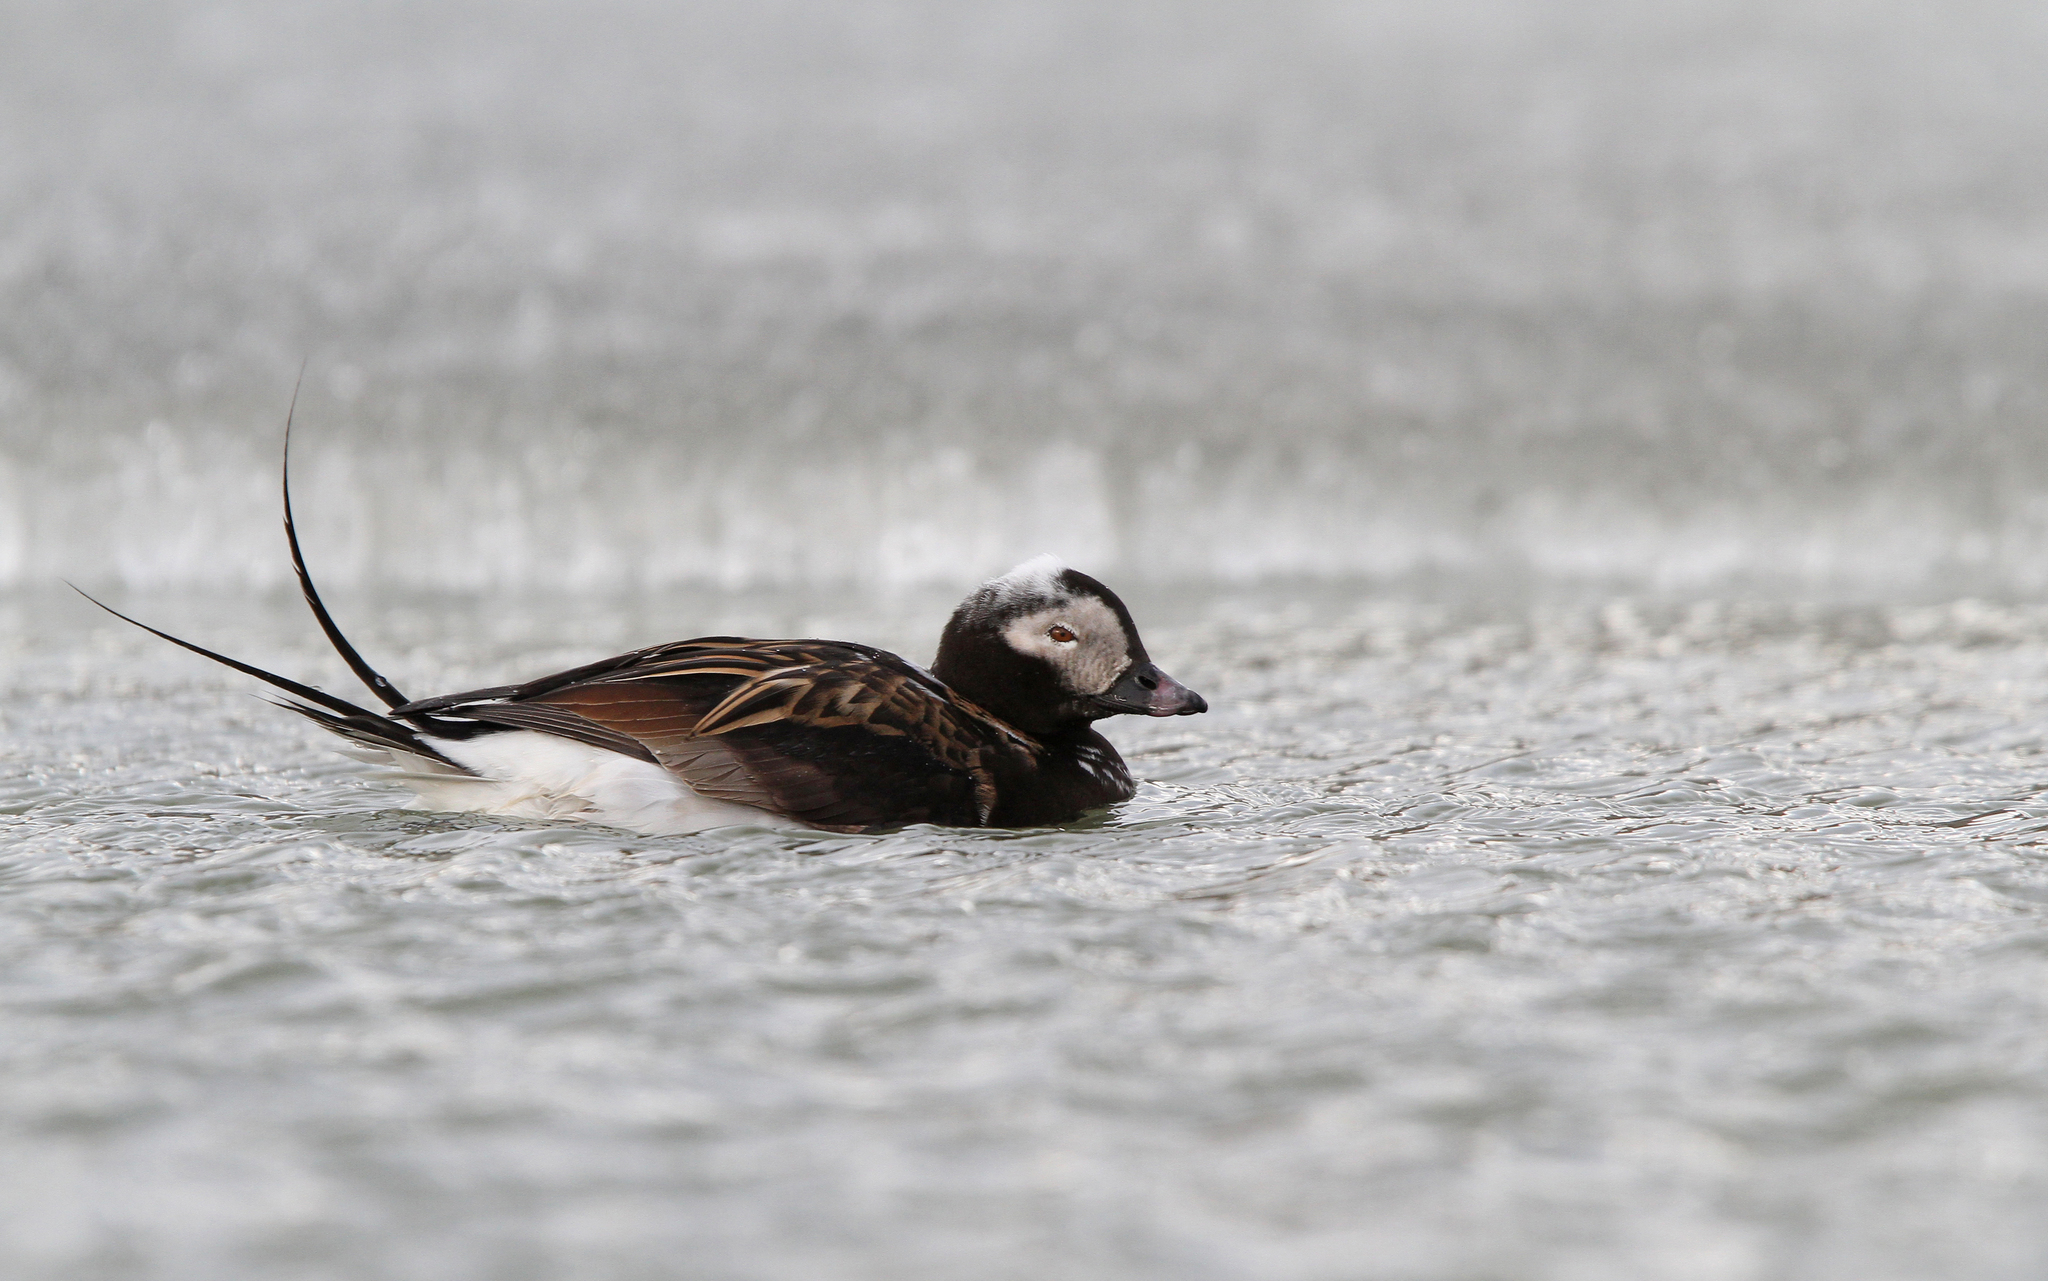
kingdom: Animalia
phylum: Chordata
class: Aves
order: Anseriformes
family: Anatidae
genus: Clangula
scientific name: Clangula hyemalis
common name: Long-tailed duck
